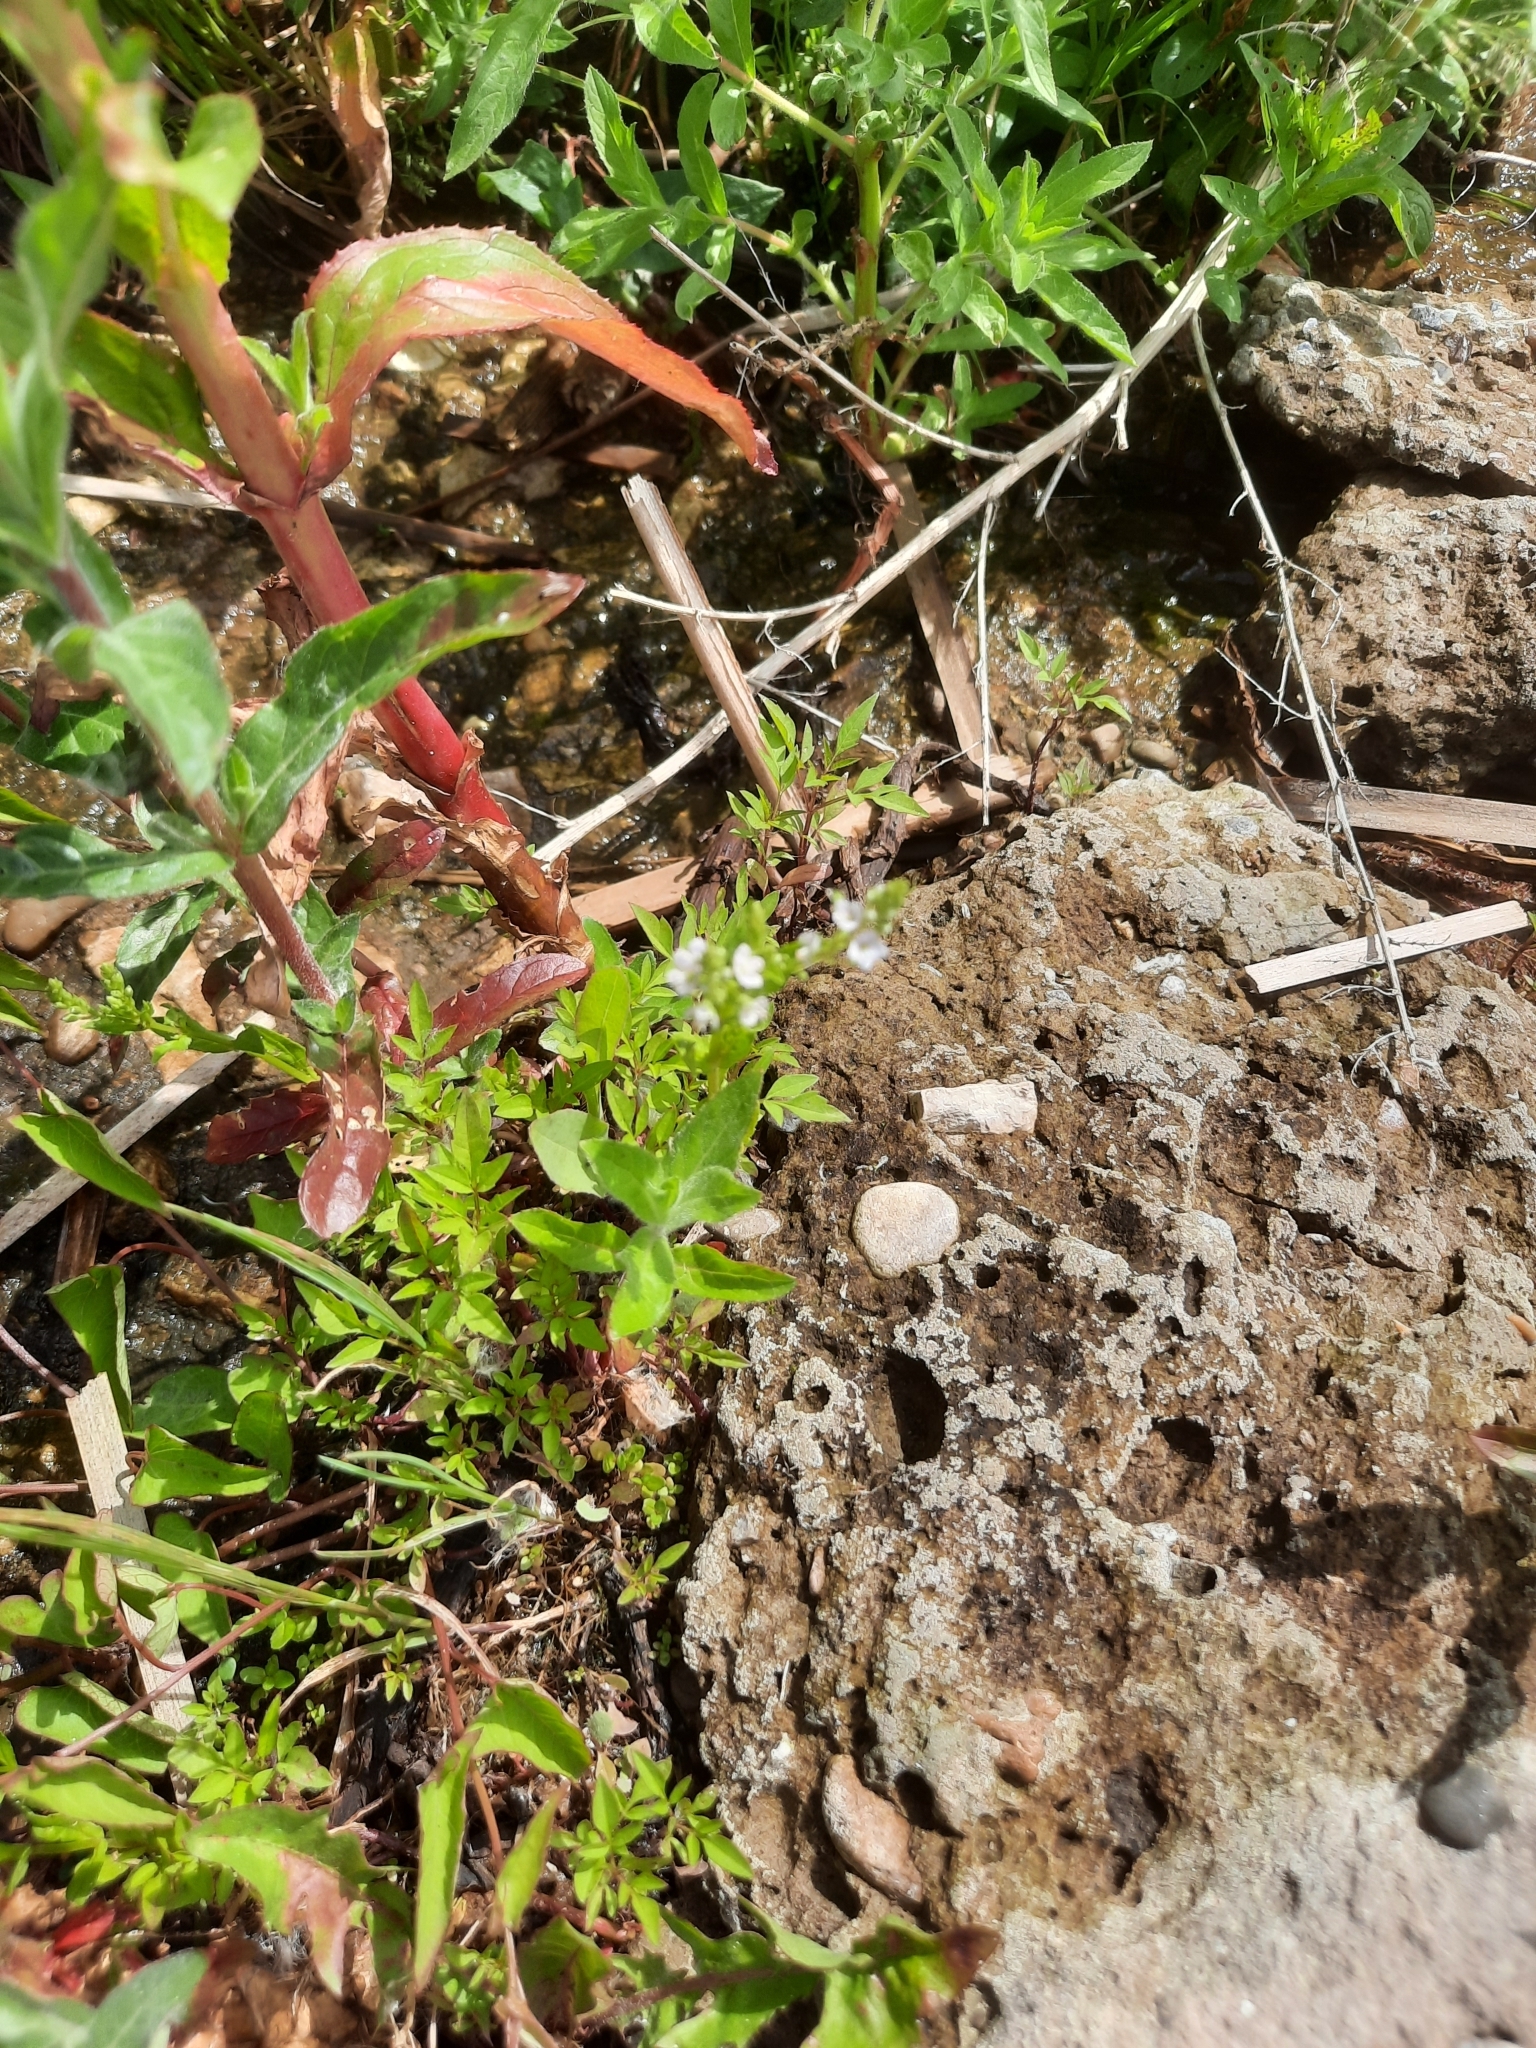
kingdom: Plantae
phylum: Tracheophyta
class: Magnoliopsida
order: Lamiales
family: Plantaginaceae
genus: Veronica
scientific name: Veronica anagallis-aquatica
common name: Water speedwell
